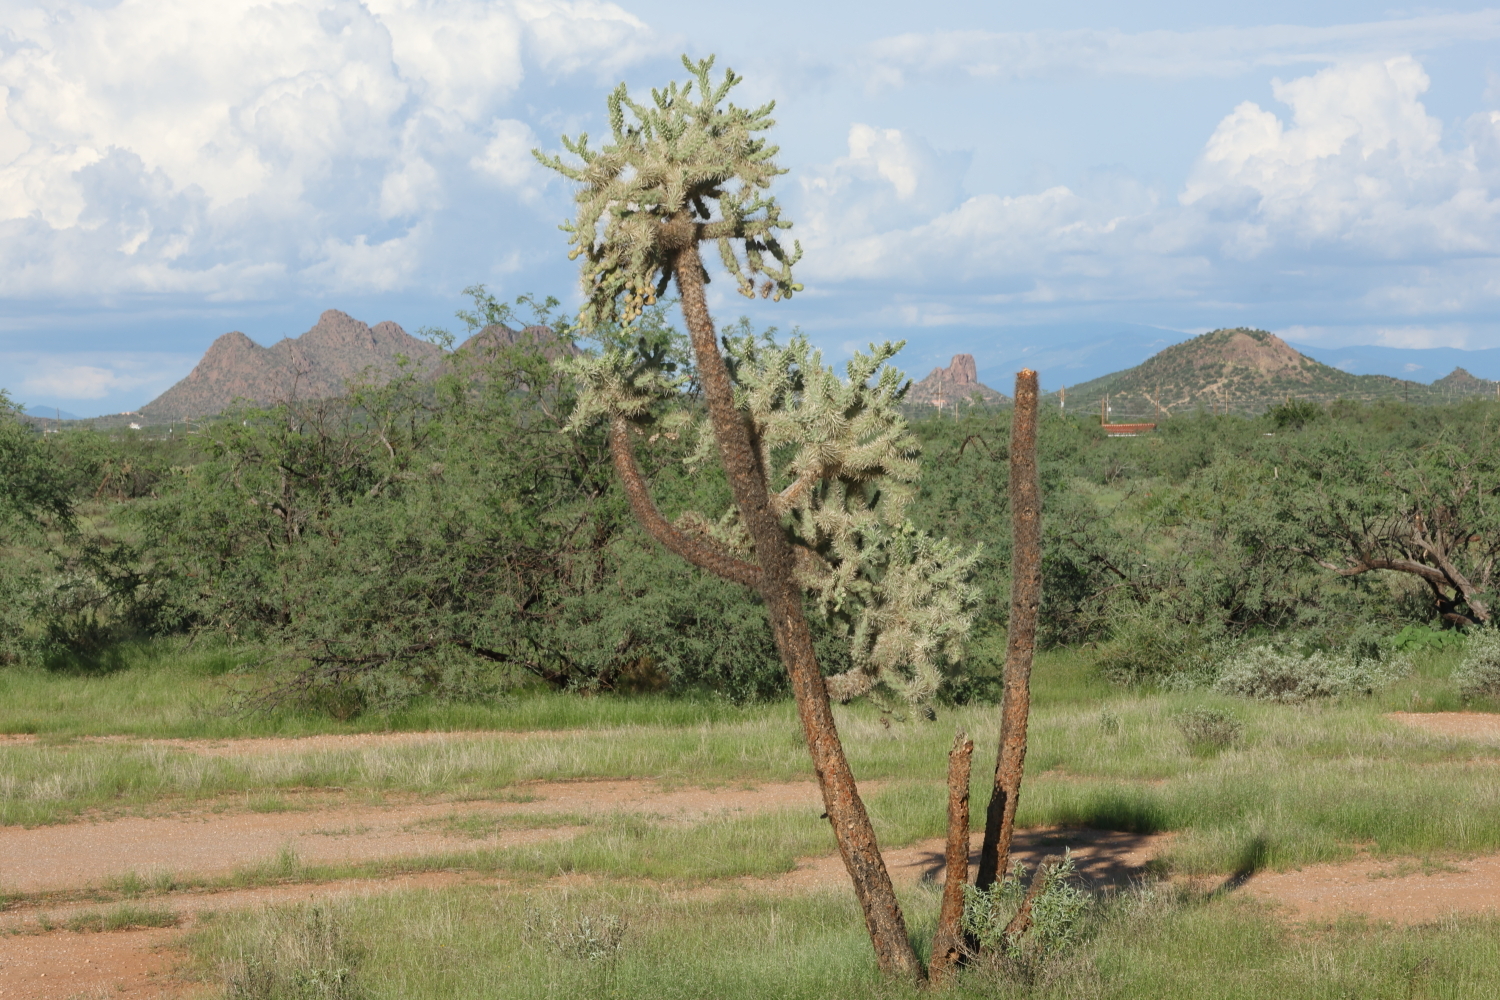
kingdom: Plantae
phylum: Tracheophyta
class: Magnoliopsida
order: Caryophyllales
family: Cactaceae
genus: Cylindropuntia
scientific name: Cylindropuntia fulgida
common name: Jumping cholla
